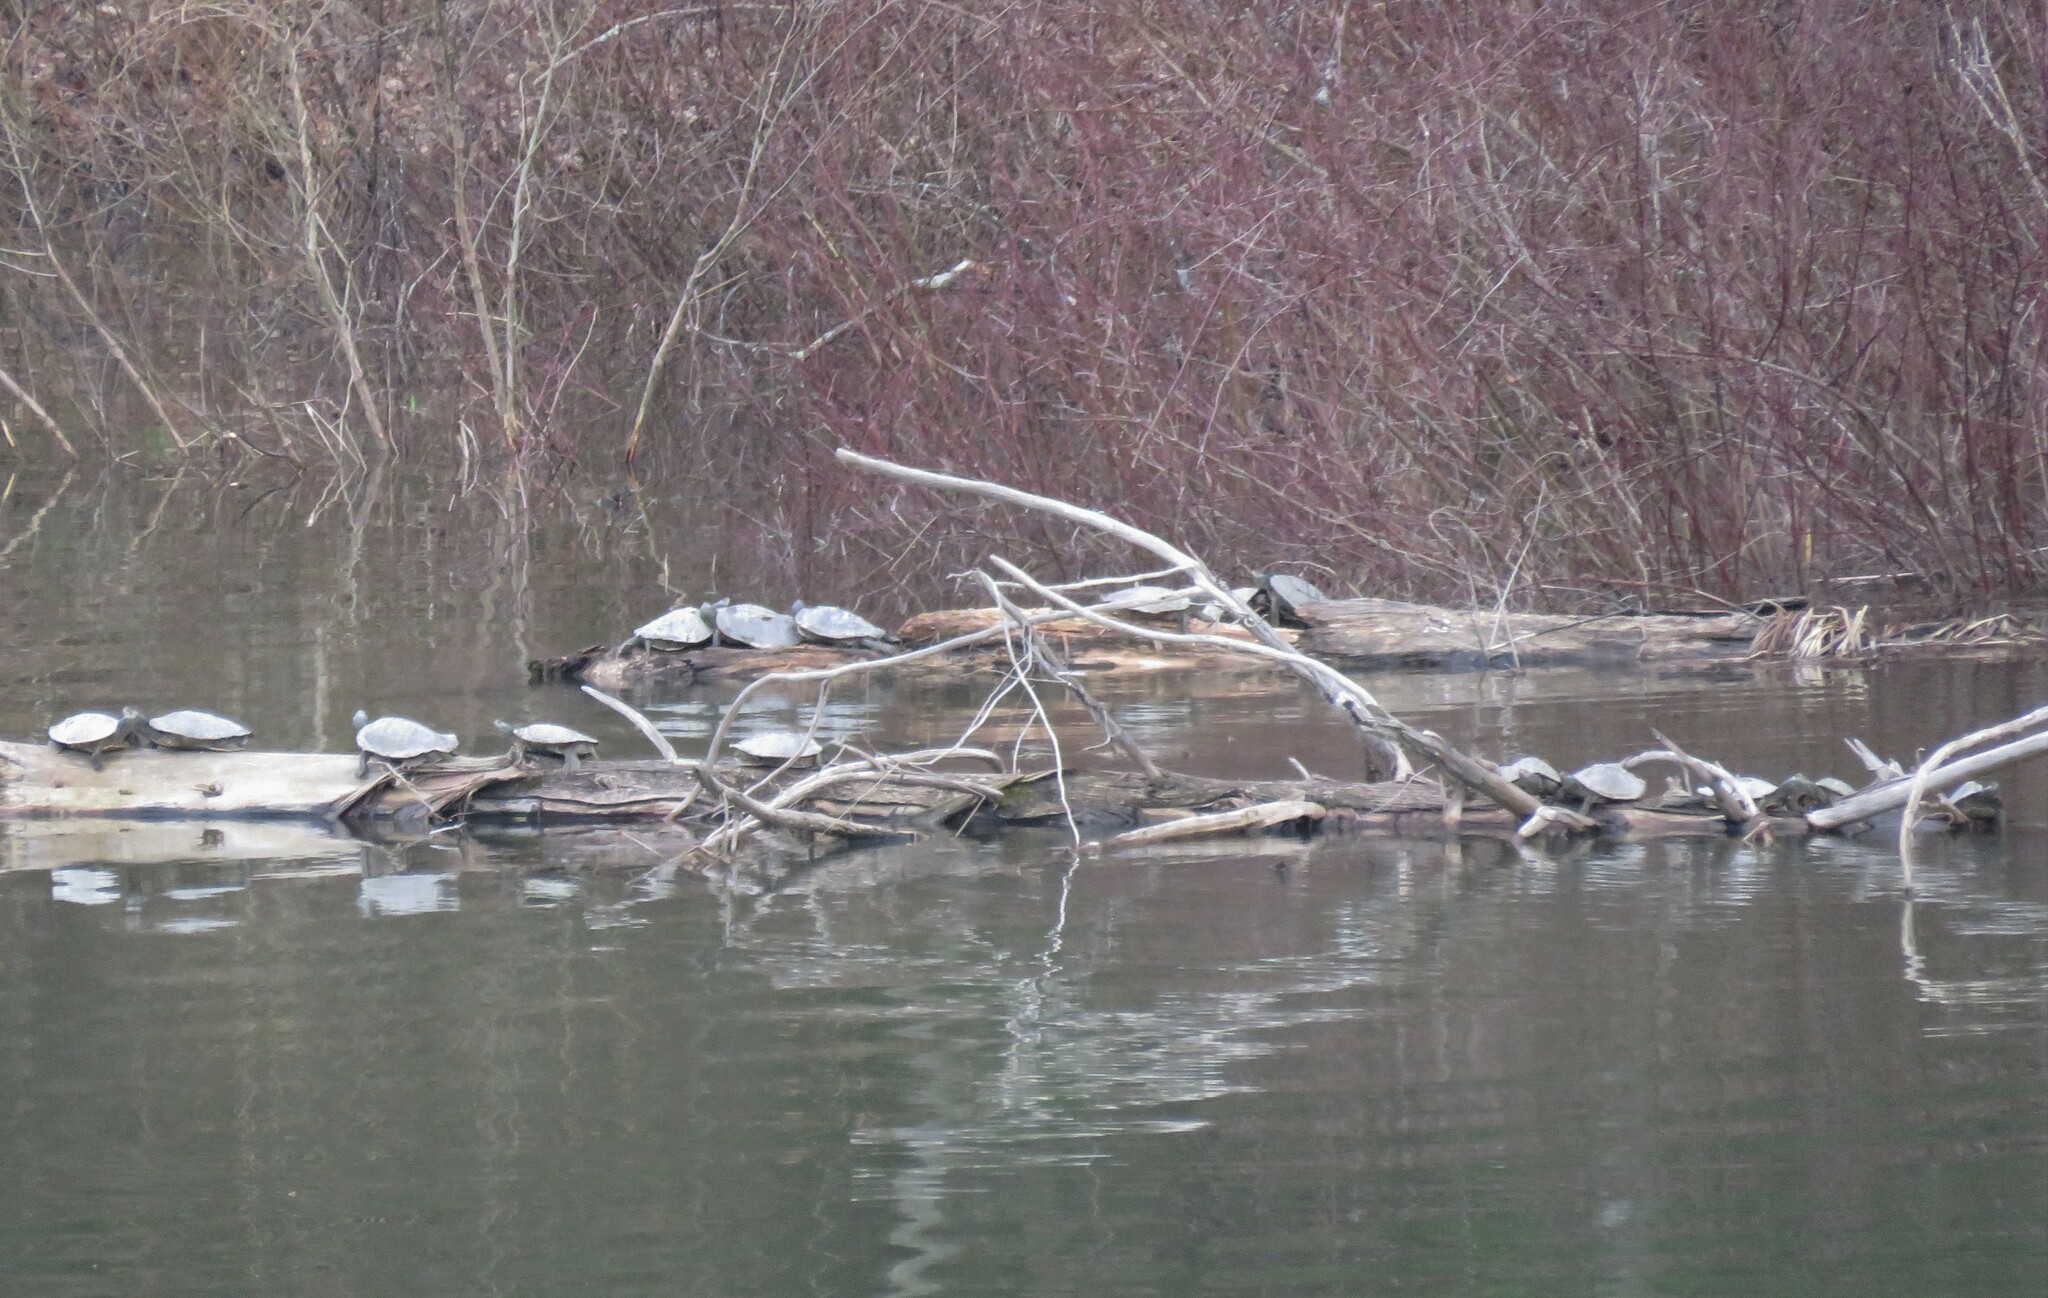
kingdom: Animalia
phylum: Chordata
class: Testudines
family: Emydidae
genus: Graptemys
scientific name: Graptemys geographica
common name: Common map turtle
